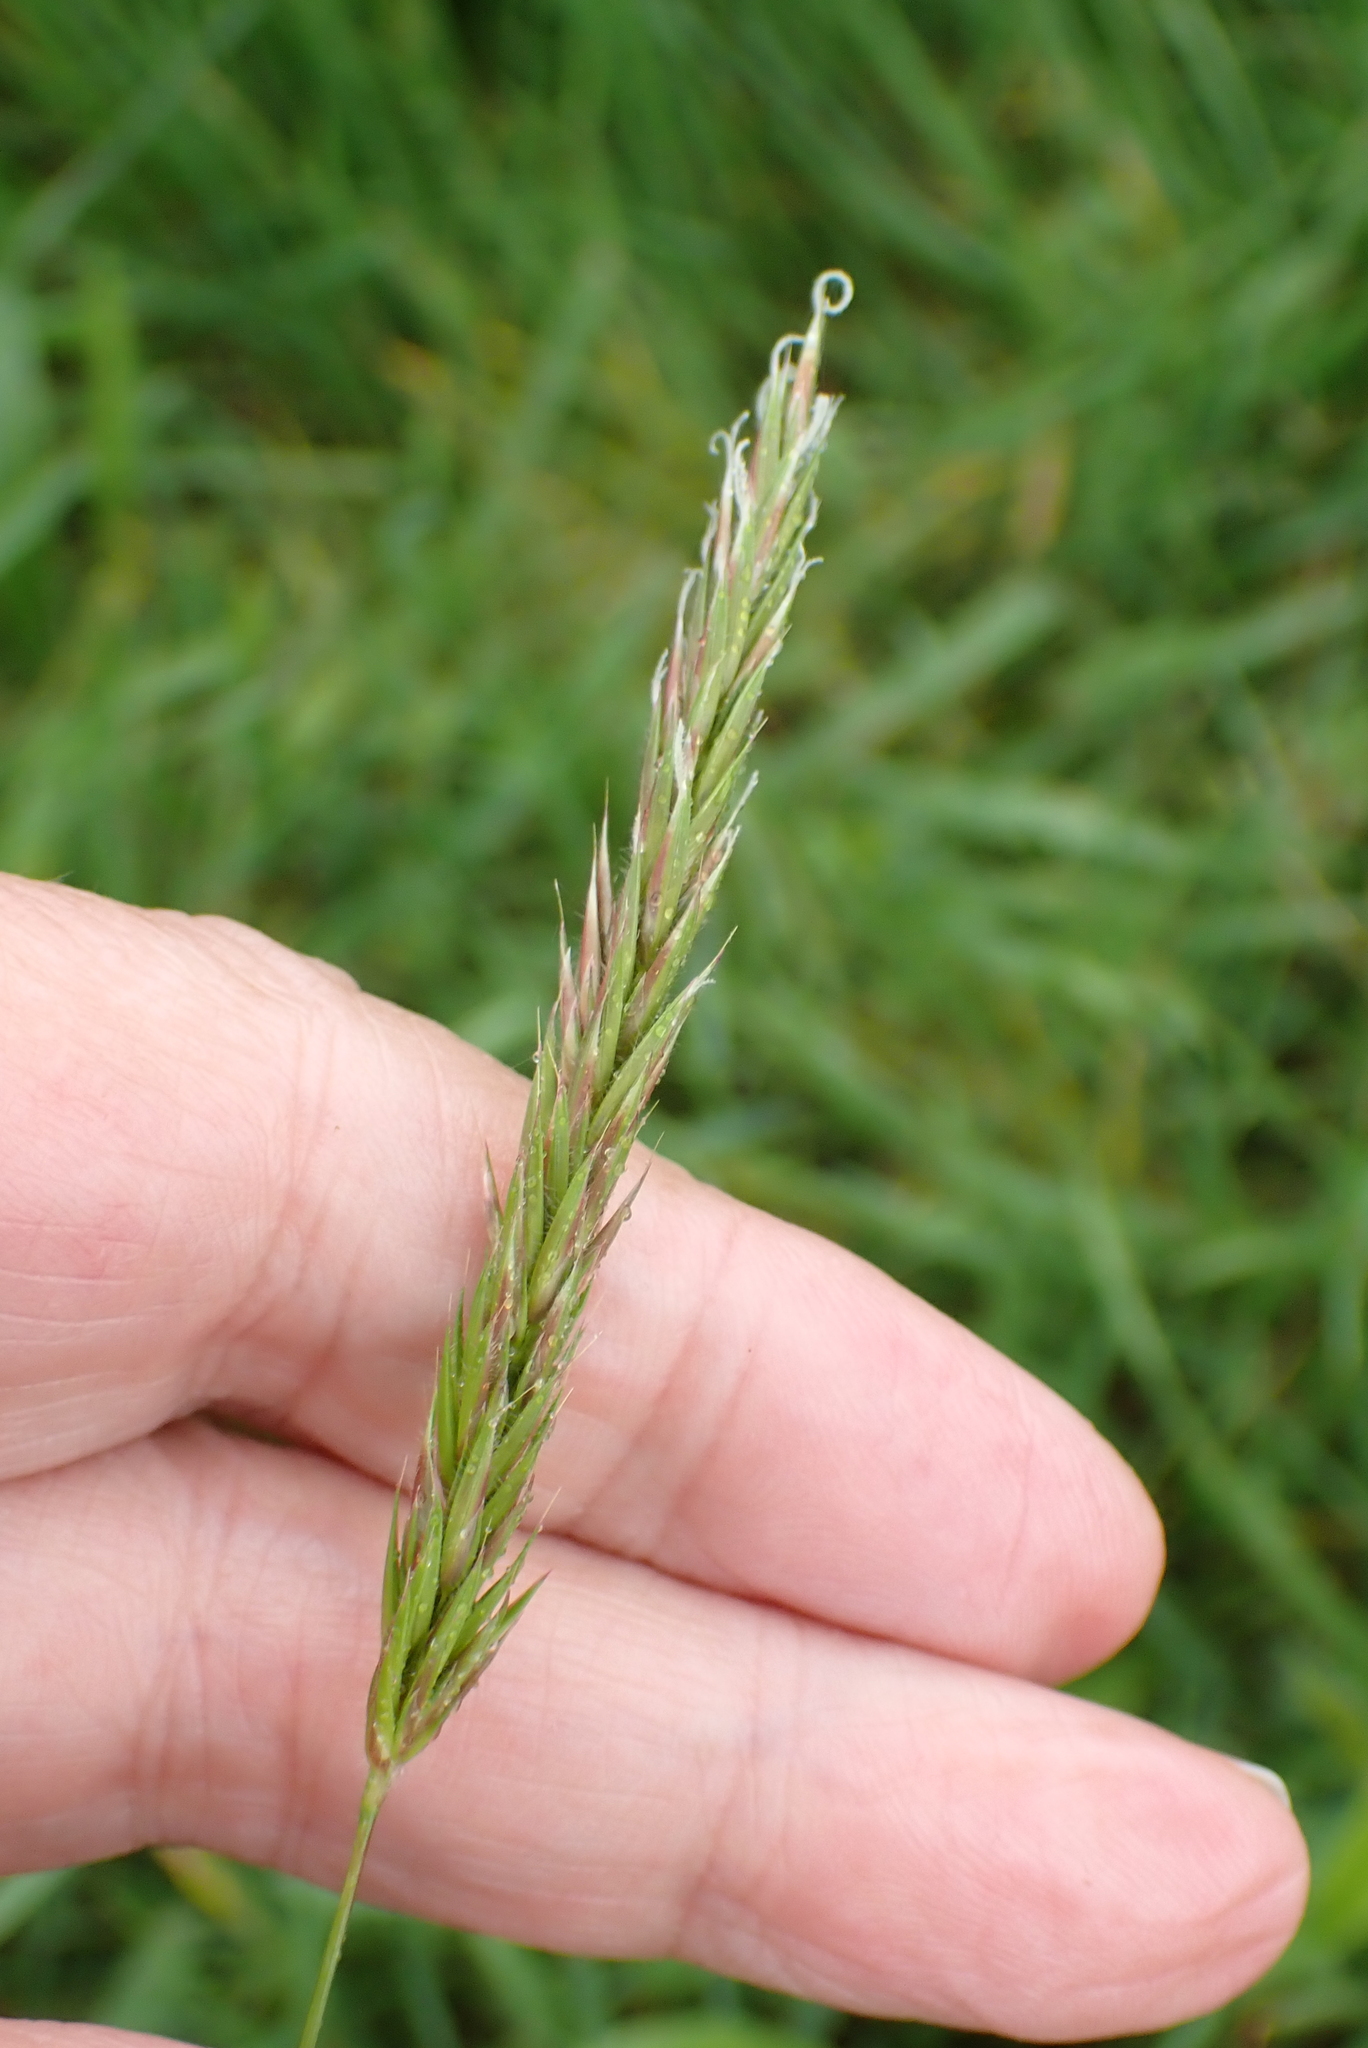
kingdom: Plantae
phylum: Tracheophyta
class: Liliopsida
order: Poales
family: Poaceae
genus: Anthoxanthum
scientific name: Anthoxanthum odoratum
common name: Sweet vernalgrass
